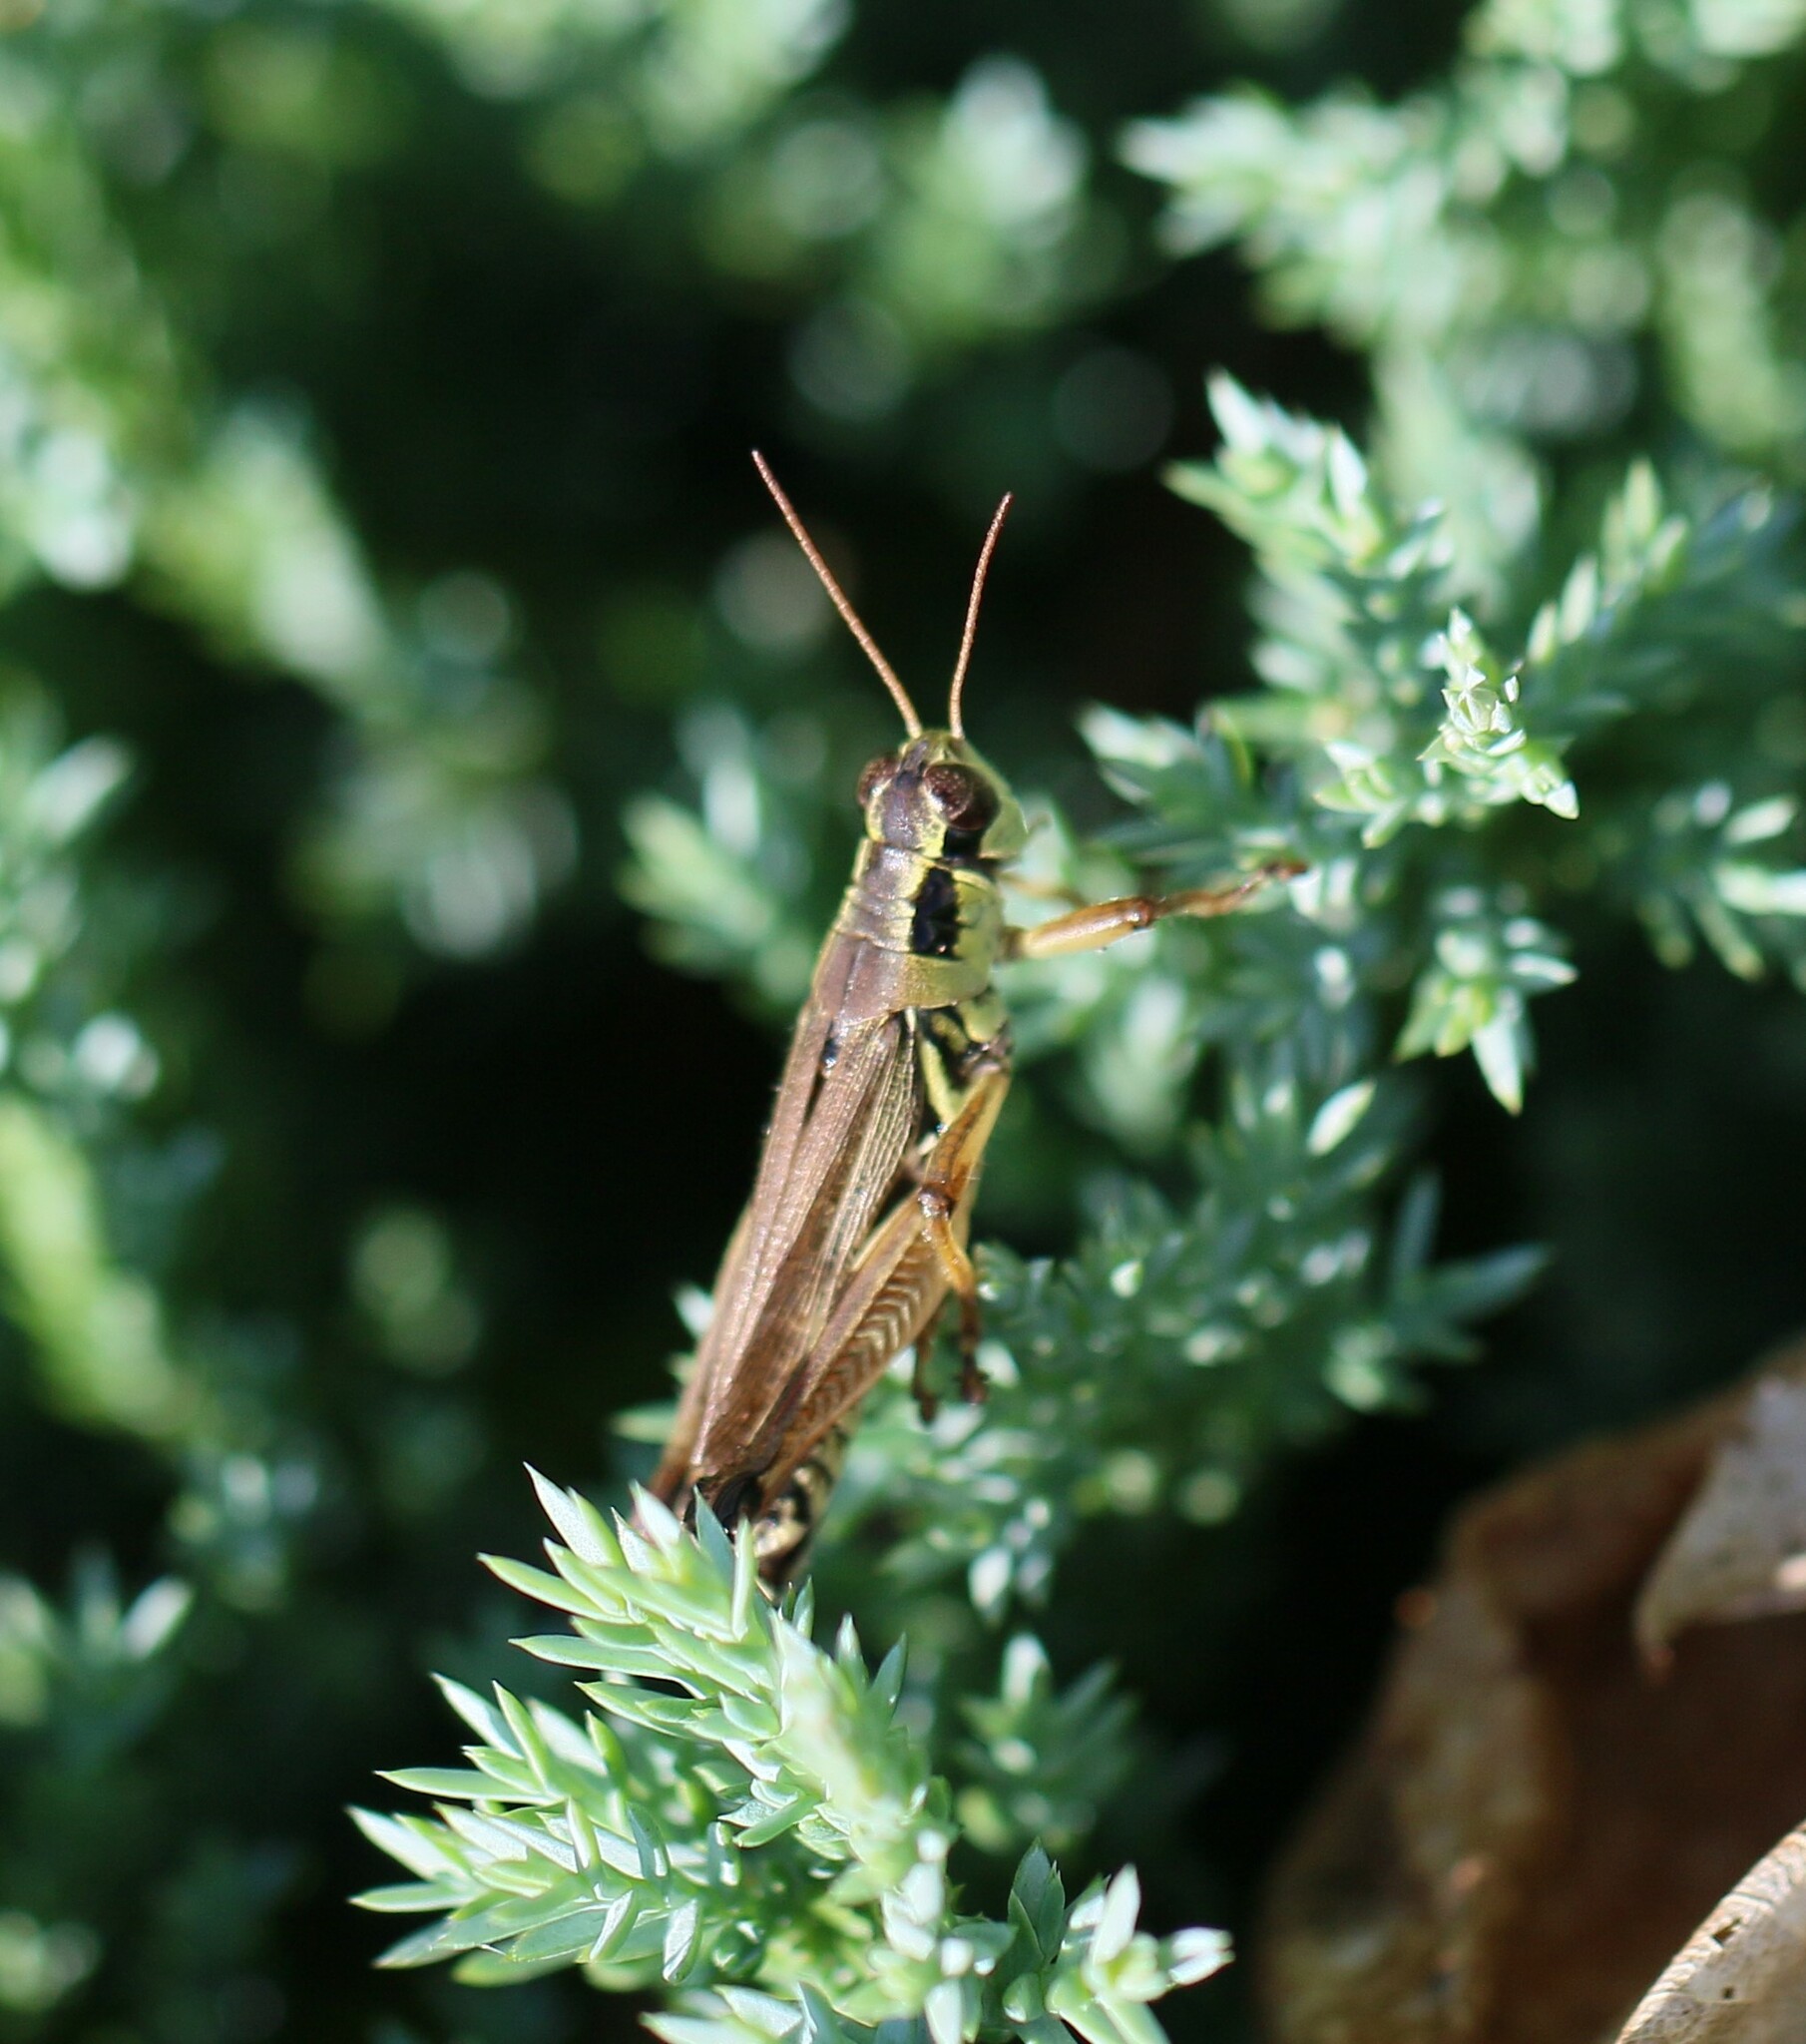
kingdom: Animalia
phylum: Arthropoda
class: Insecta
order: Orthoptera
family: Acrididae
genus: Melanoplus
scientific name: Melanoplus borealis
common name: Northern grasshopper
